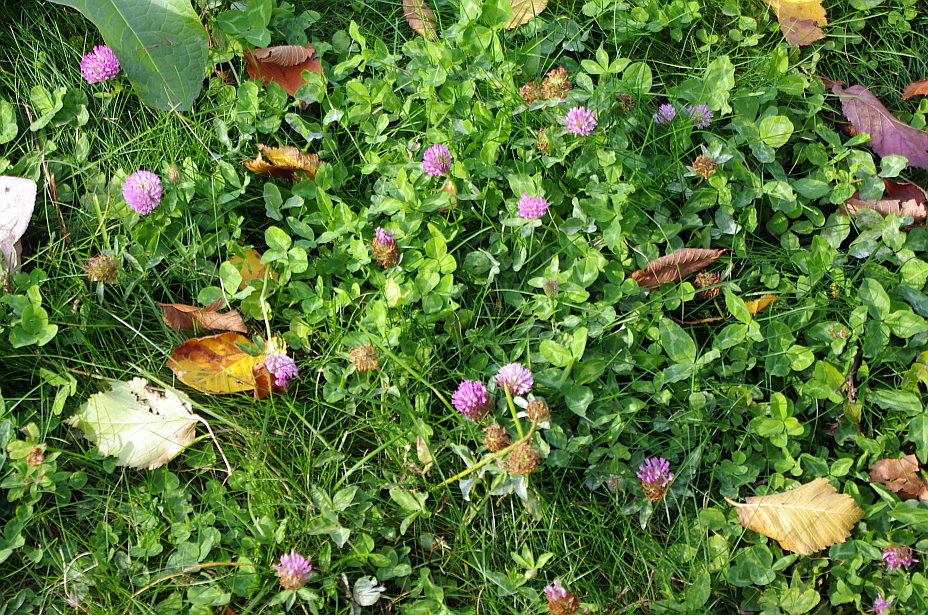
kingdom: Plantae
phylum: Tracheophyta
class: Magnoliopsida
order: Fabales
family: Fabaceae
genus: Trifolium
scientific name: Trifolium pratense
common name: Red clover
